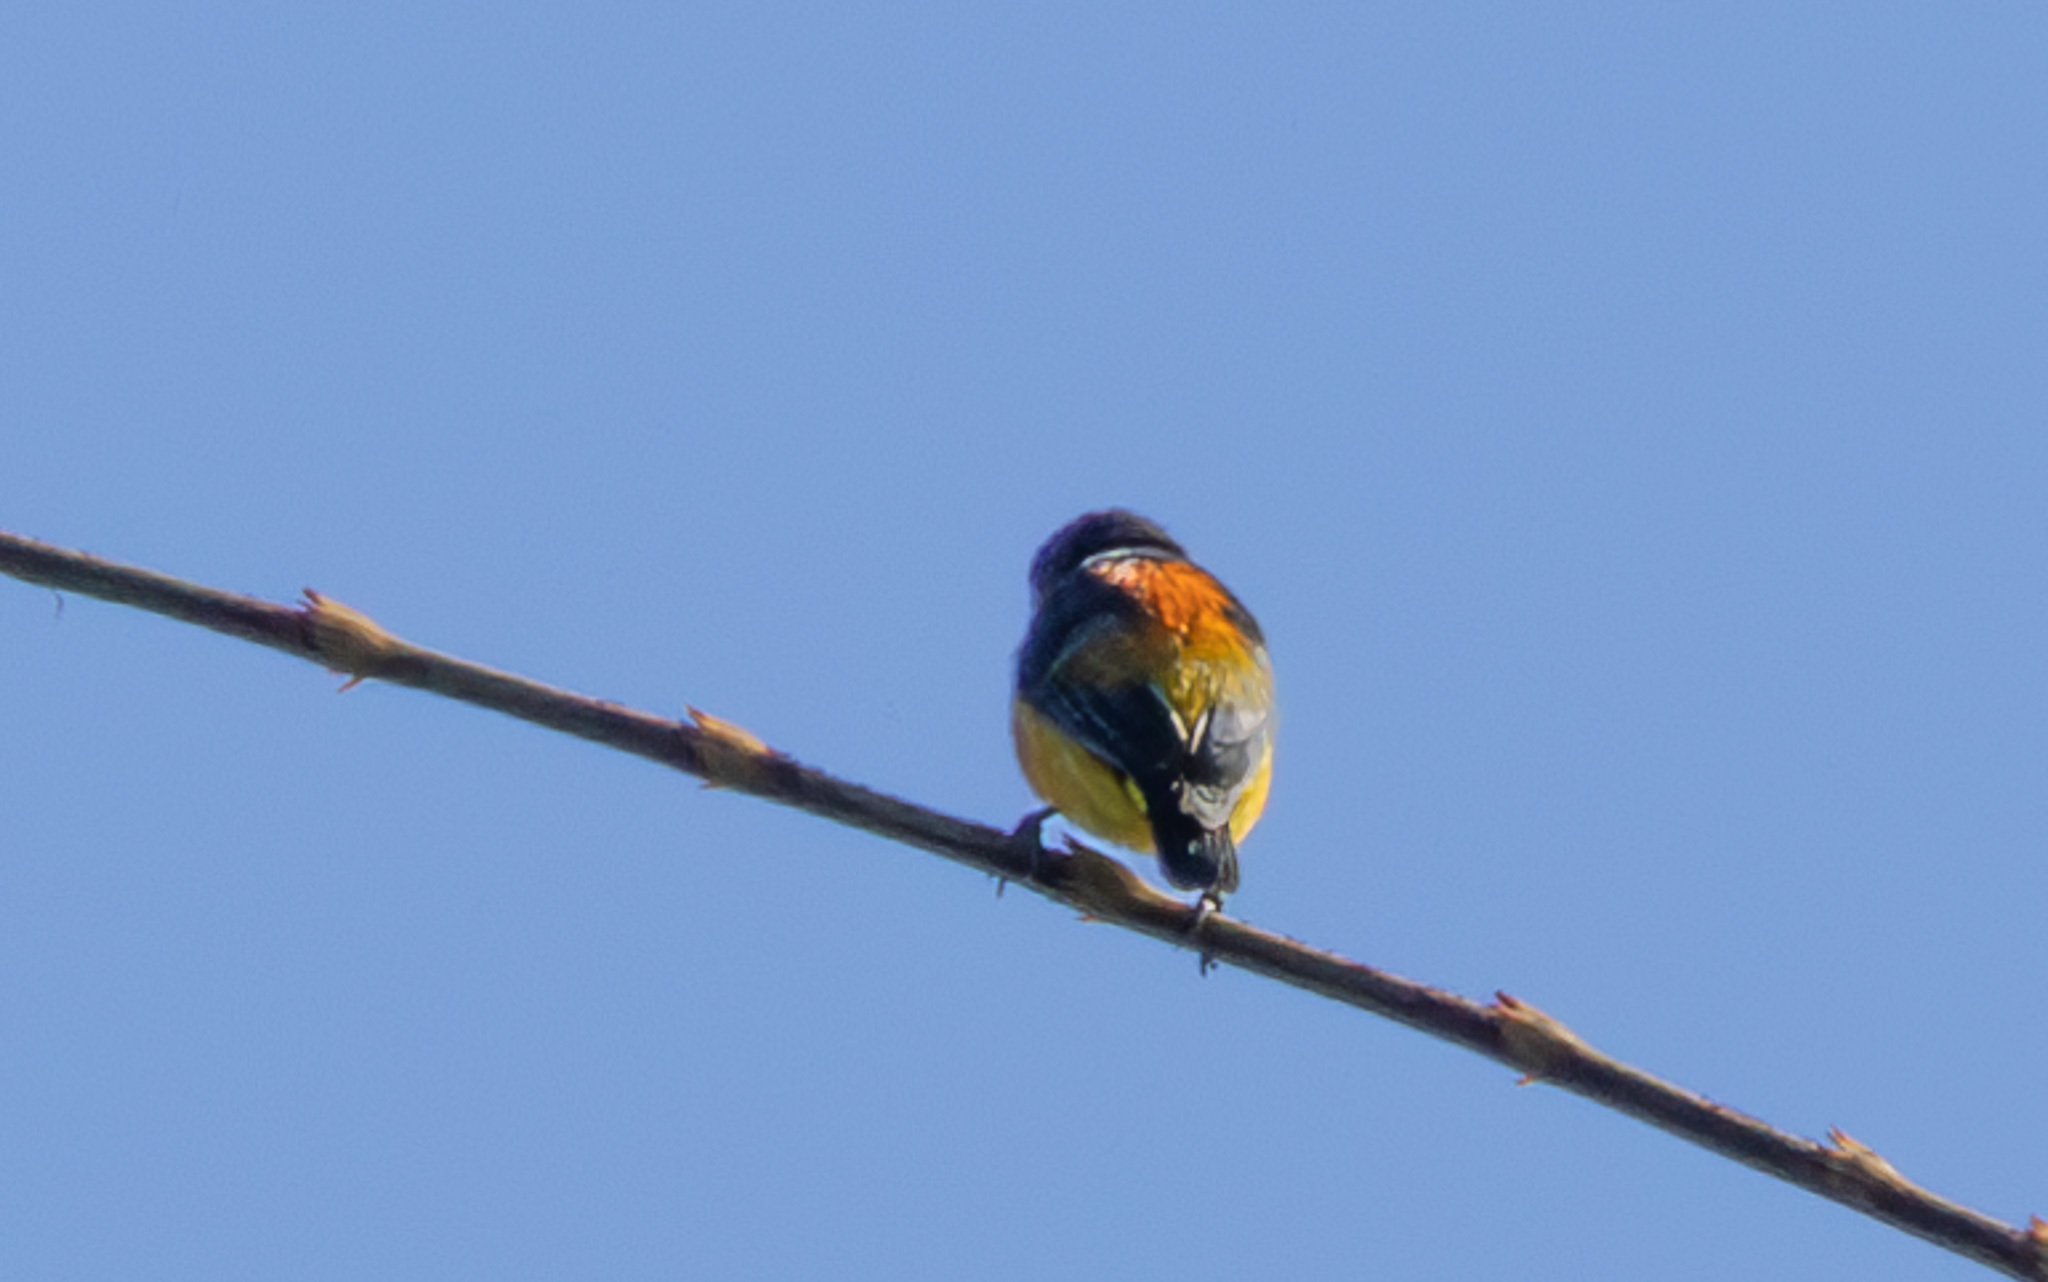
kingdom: Animalia
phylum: Chordata
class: Aves
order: Passeriformes
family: Dicaeidae
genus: Dicaeum
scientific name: Dicaeum trigonostigma
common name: Orange-bellied flowerpecker
